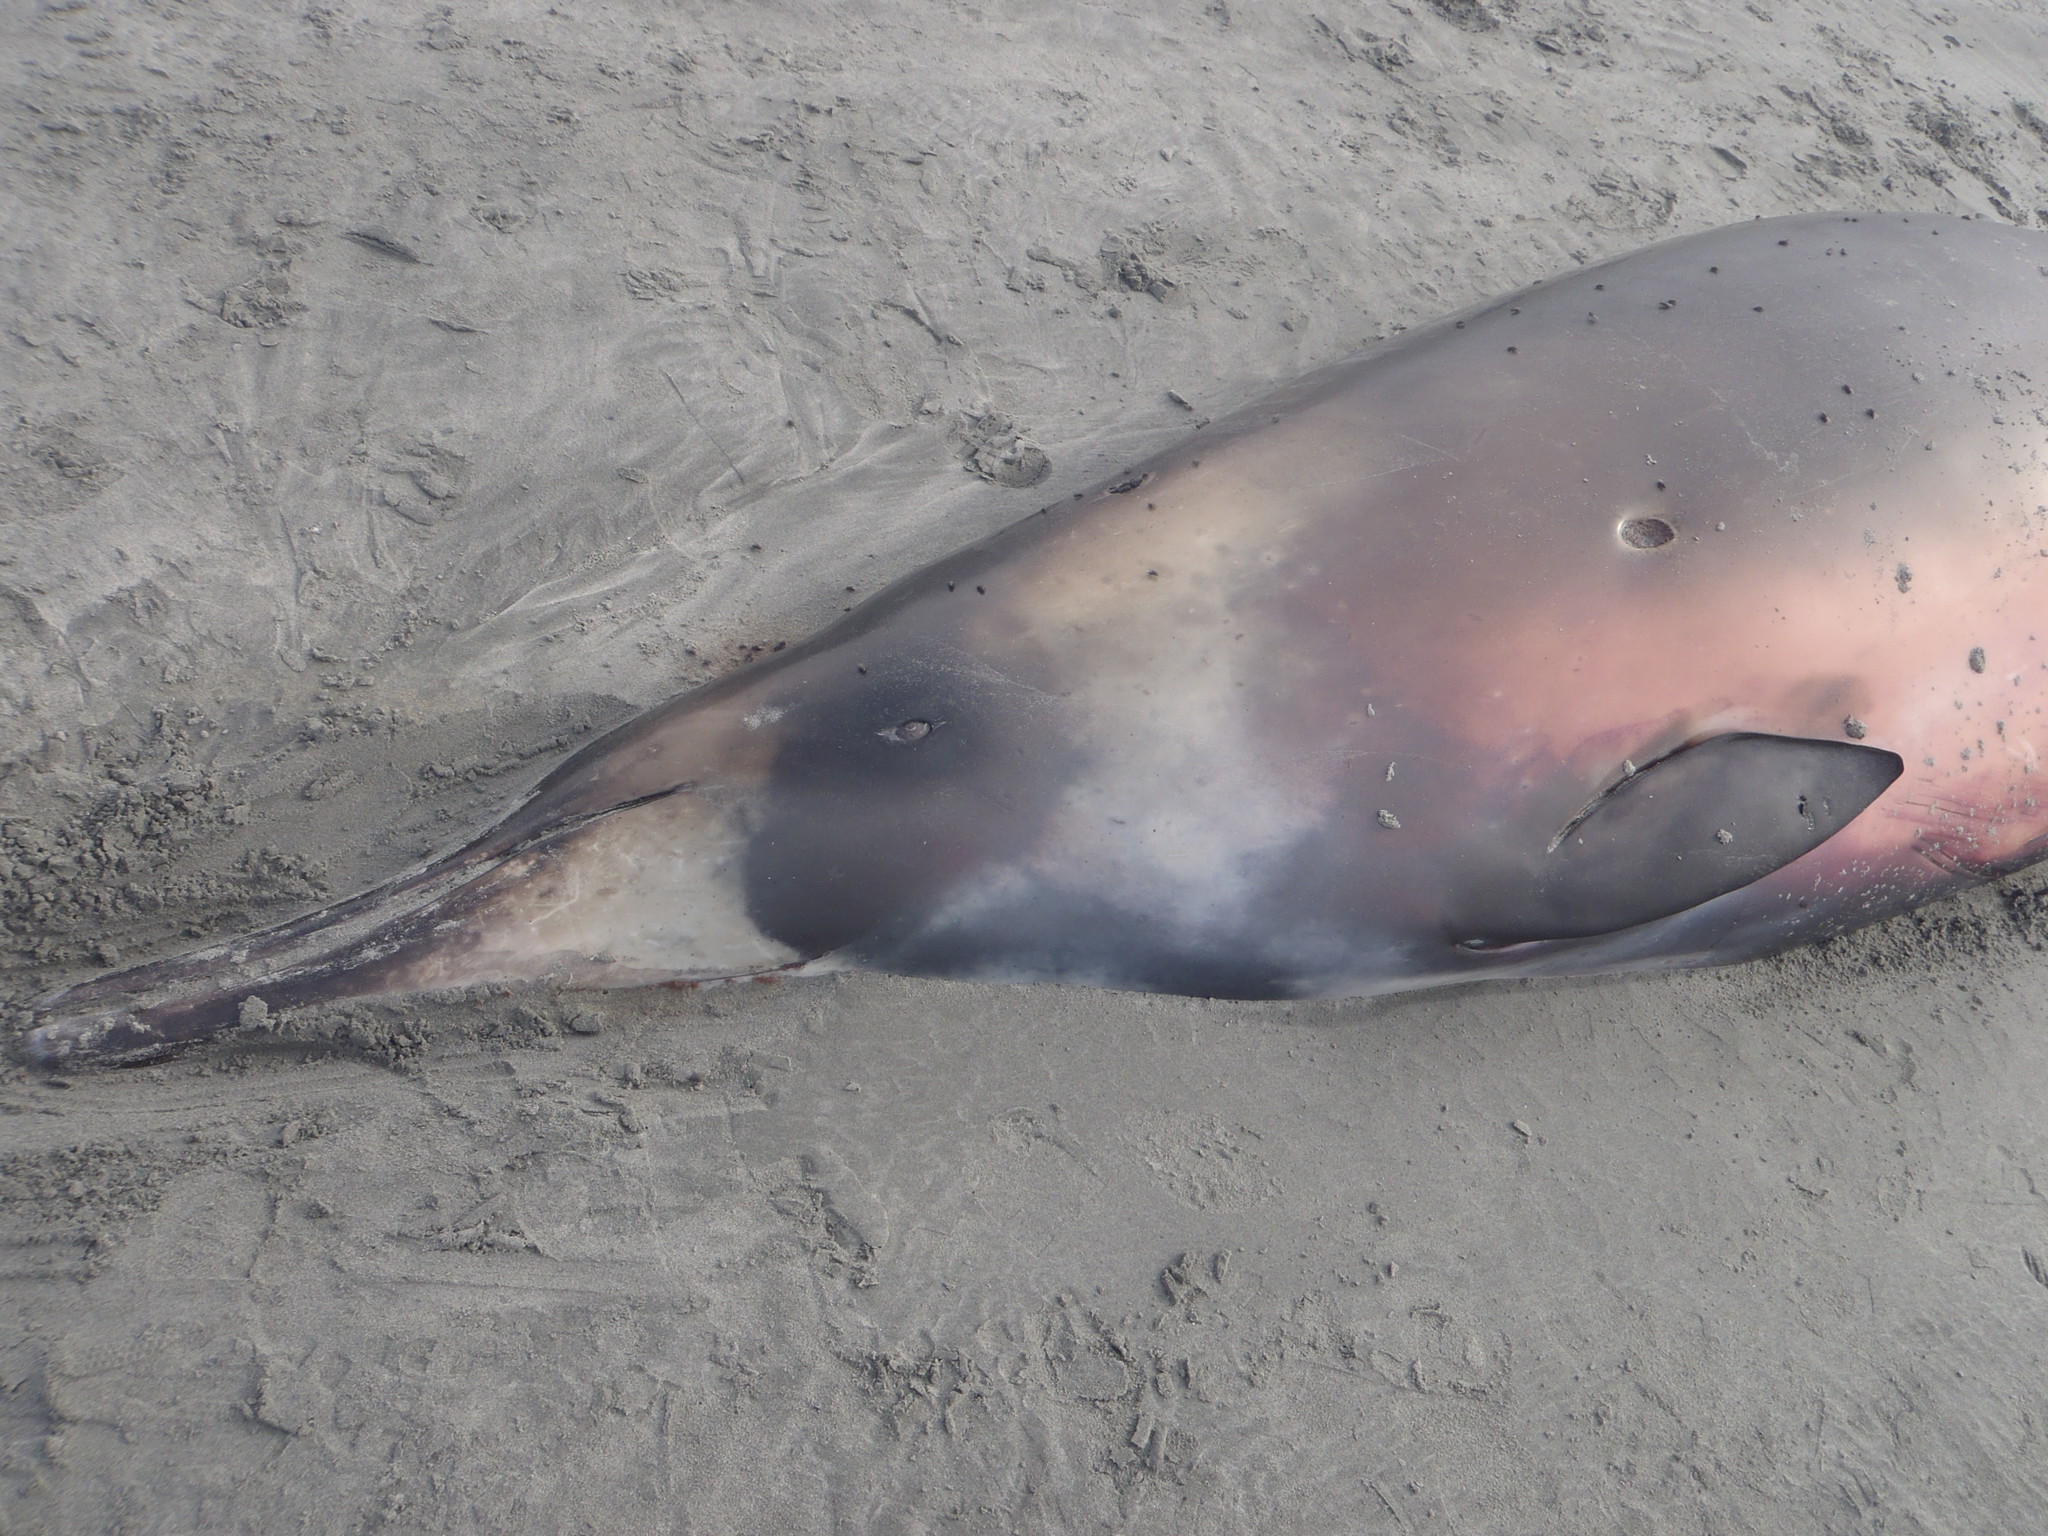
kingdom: Animalia
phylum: Chordata
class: Mammalia
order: Cetacea
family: Hyperoodontidae
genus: Mesoplodon
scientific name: Mesoplodon grayi
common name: Southern beaked whale
